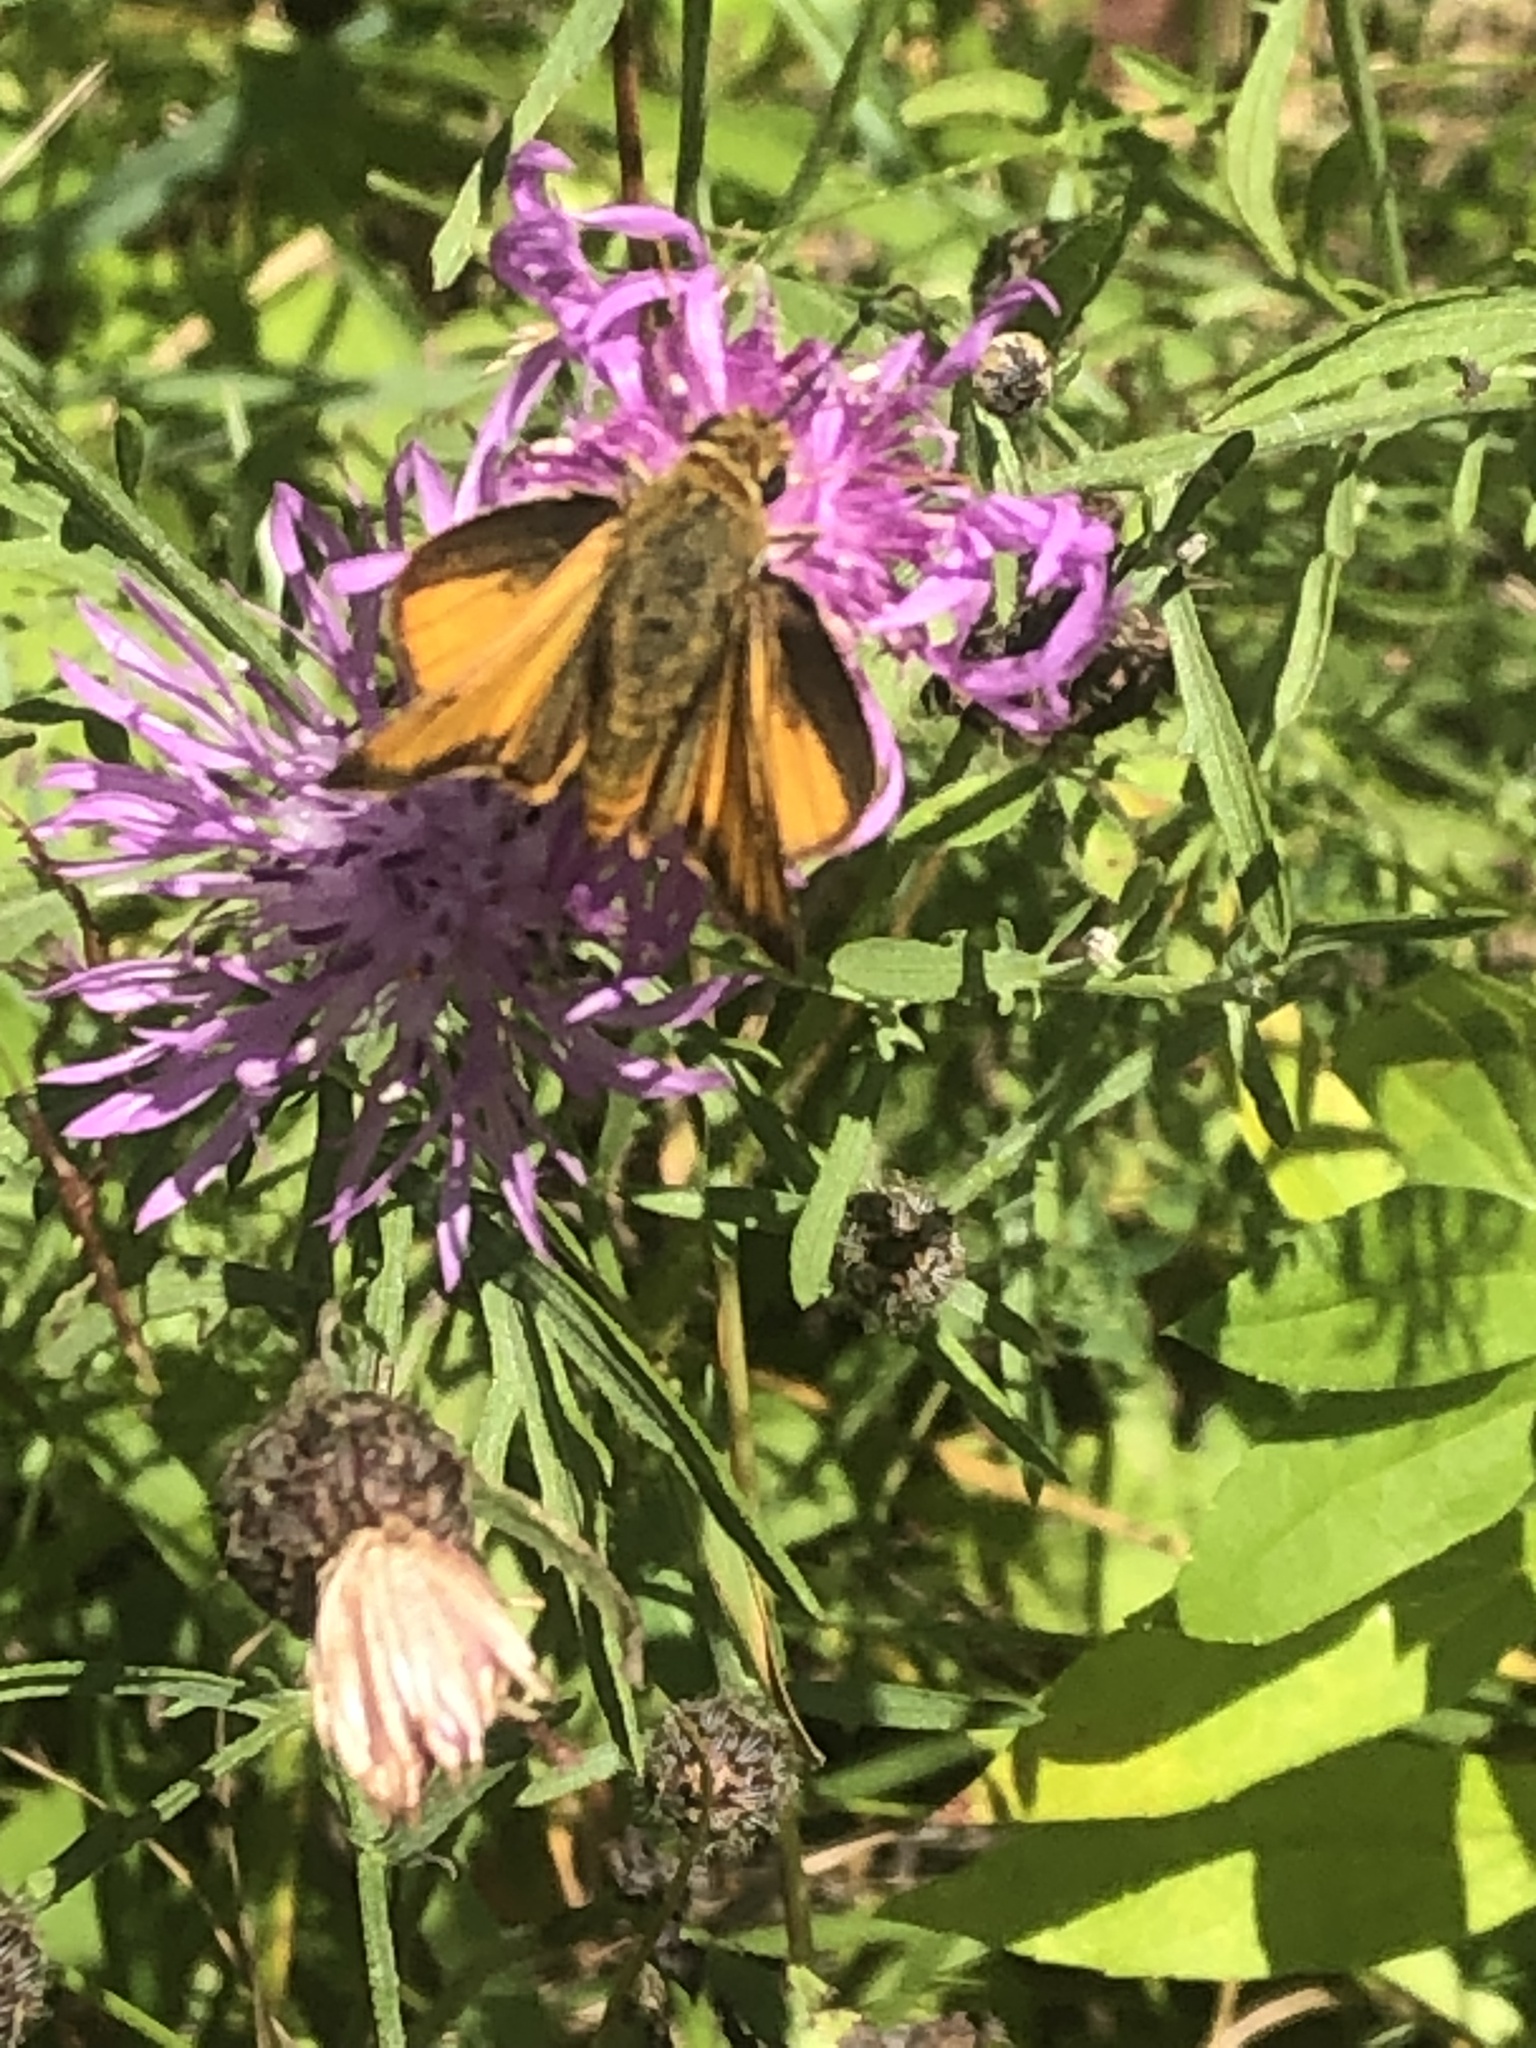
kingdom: Animalia
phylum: Arthropoda
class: Insecta
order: Lepidoptera
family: Hesperiidae
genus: Atrytone
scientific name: Atrytone delaware
